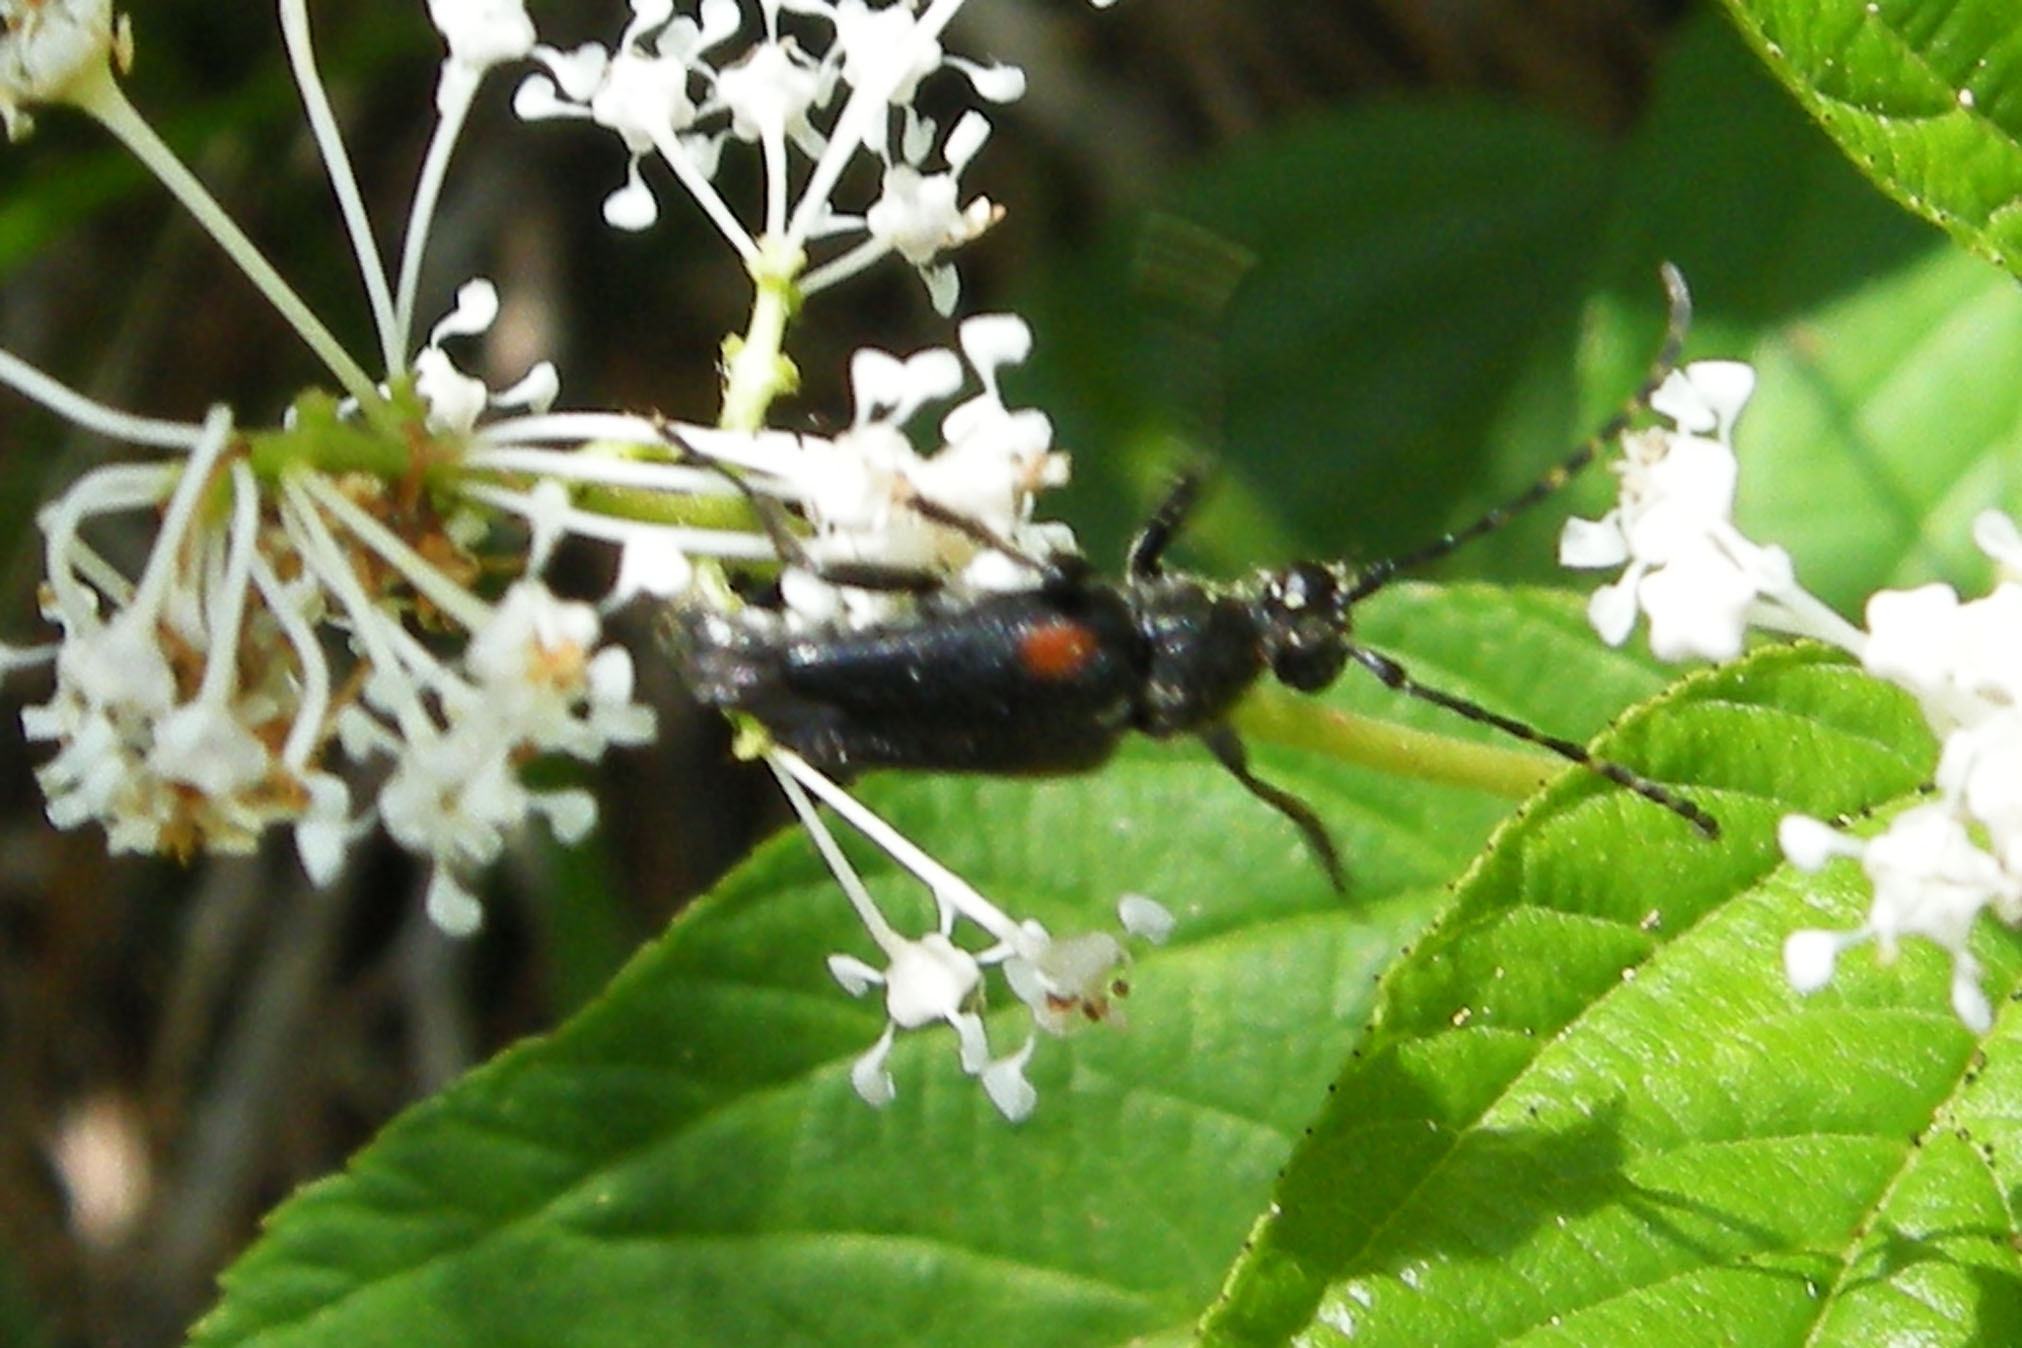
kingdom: Animalia
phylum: Arthropoda
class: Insecta
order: Coleoptera
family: Cerambycidae
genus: Brachyleptura
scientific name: Brachyleptura vagans
